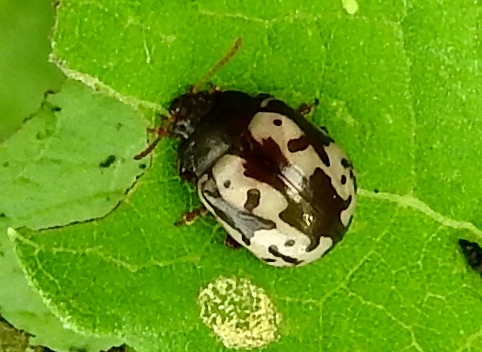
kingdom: Animalia
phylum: Arthropoda
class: Insecta
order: Coleoptera
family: Chrysomelidae
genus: Calligrapha
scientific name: Calligrapha intermedia
